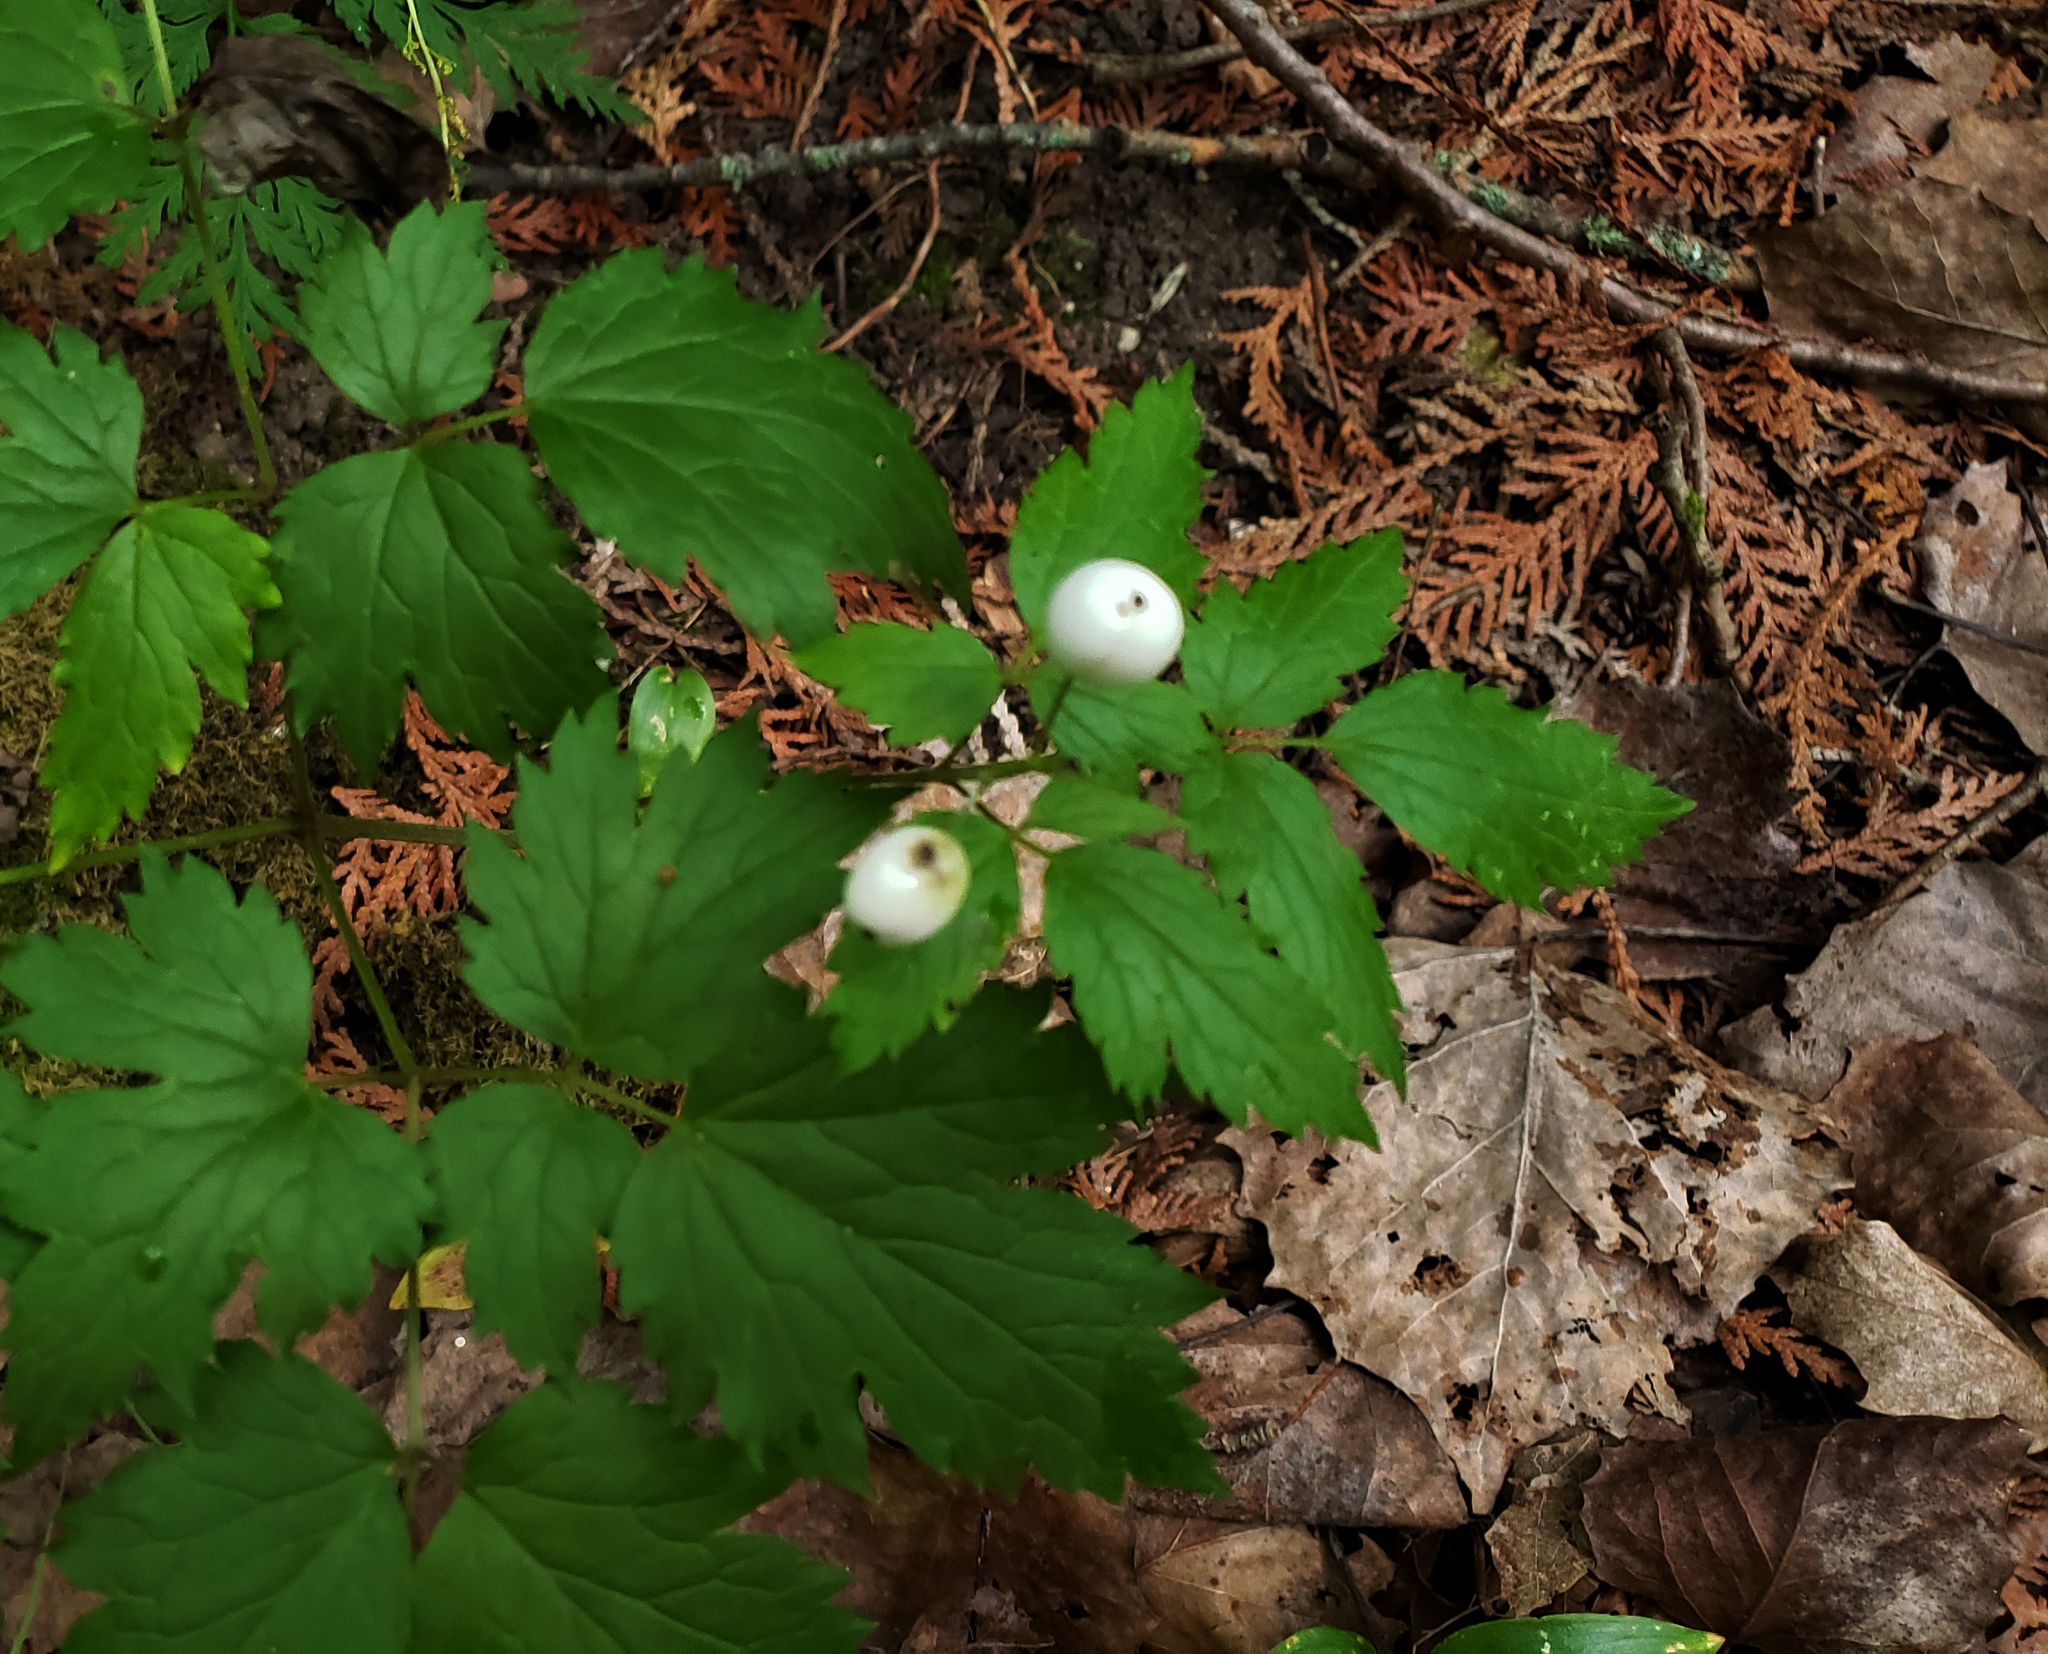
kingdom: Plantae
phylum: Tracheophyta
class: Magnoliopsida
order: Ranunculales
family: Ranunculaceae
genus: Actaea
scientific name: Actaea rubra
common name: Red baneberry
